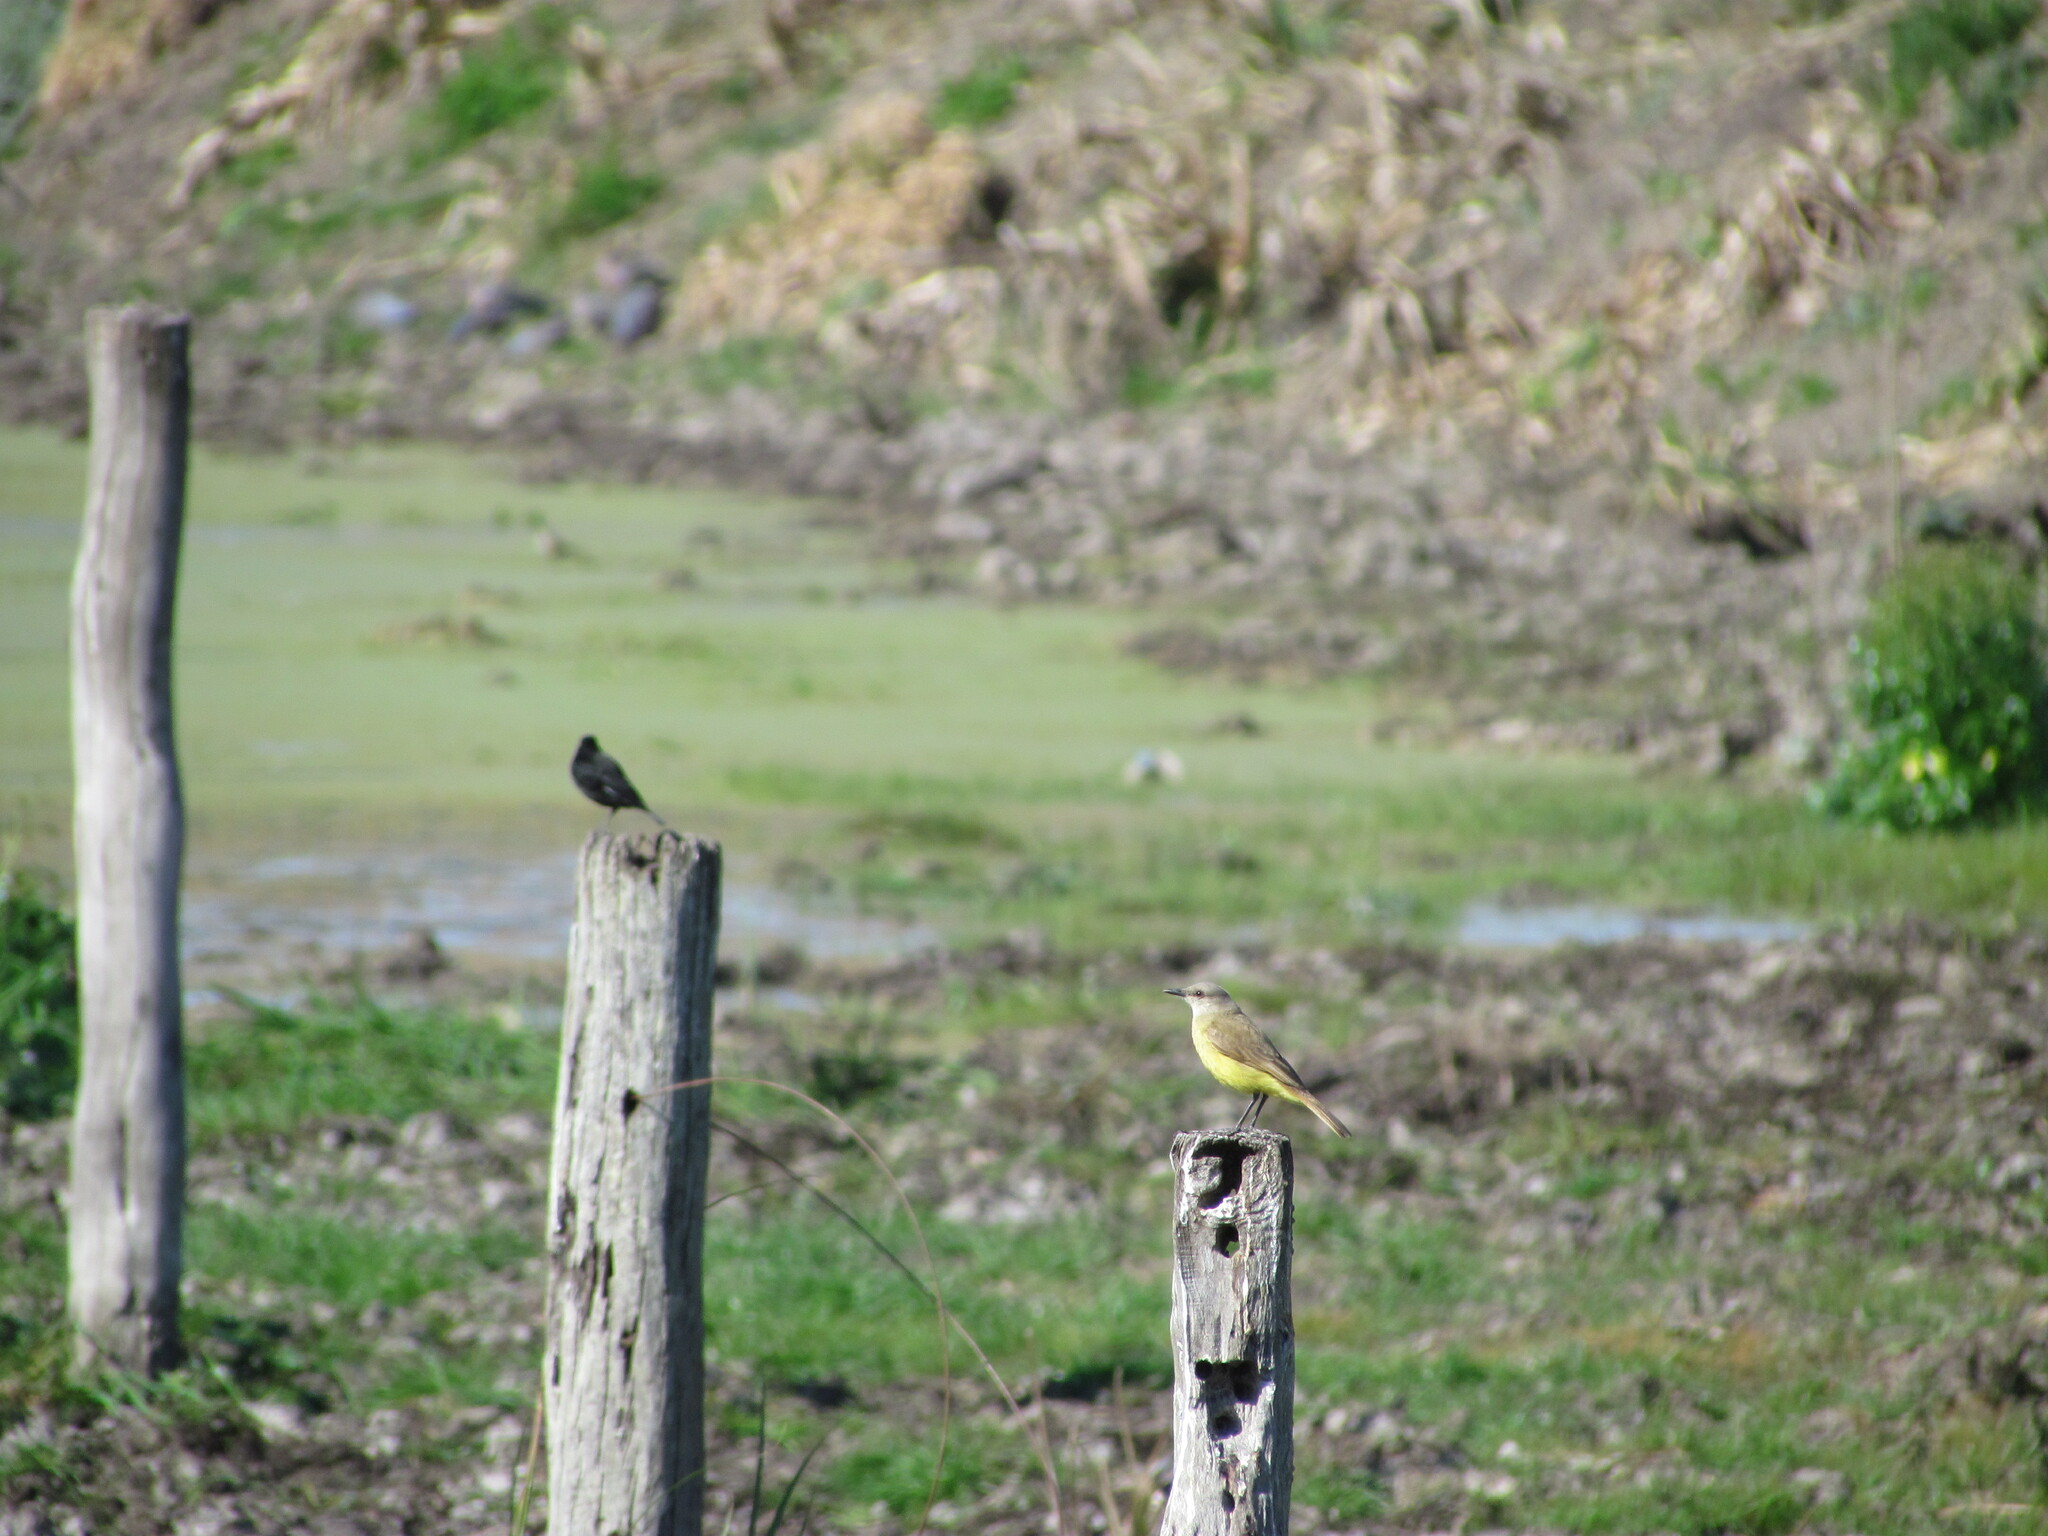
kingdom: Animalia
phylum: Chordata
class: Aves
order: Passeriformes
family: Tyrannidae
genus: Machetornis
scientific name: Machetornis rixosa
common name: Cattle tyrant
